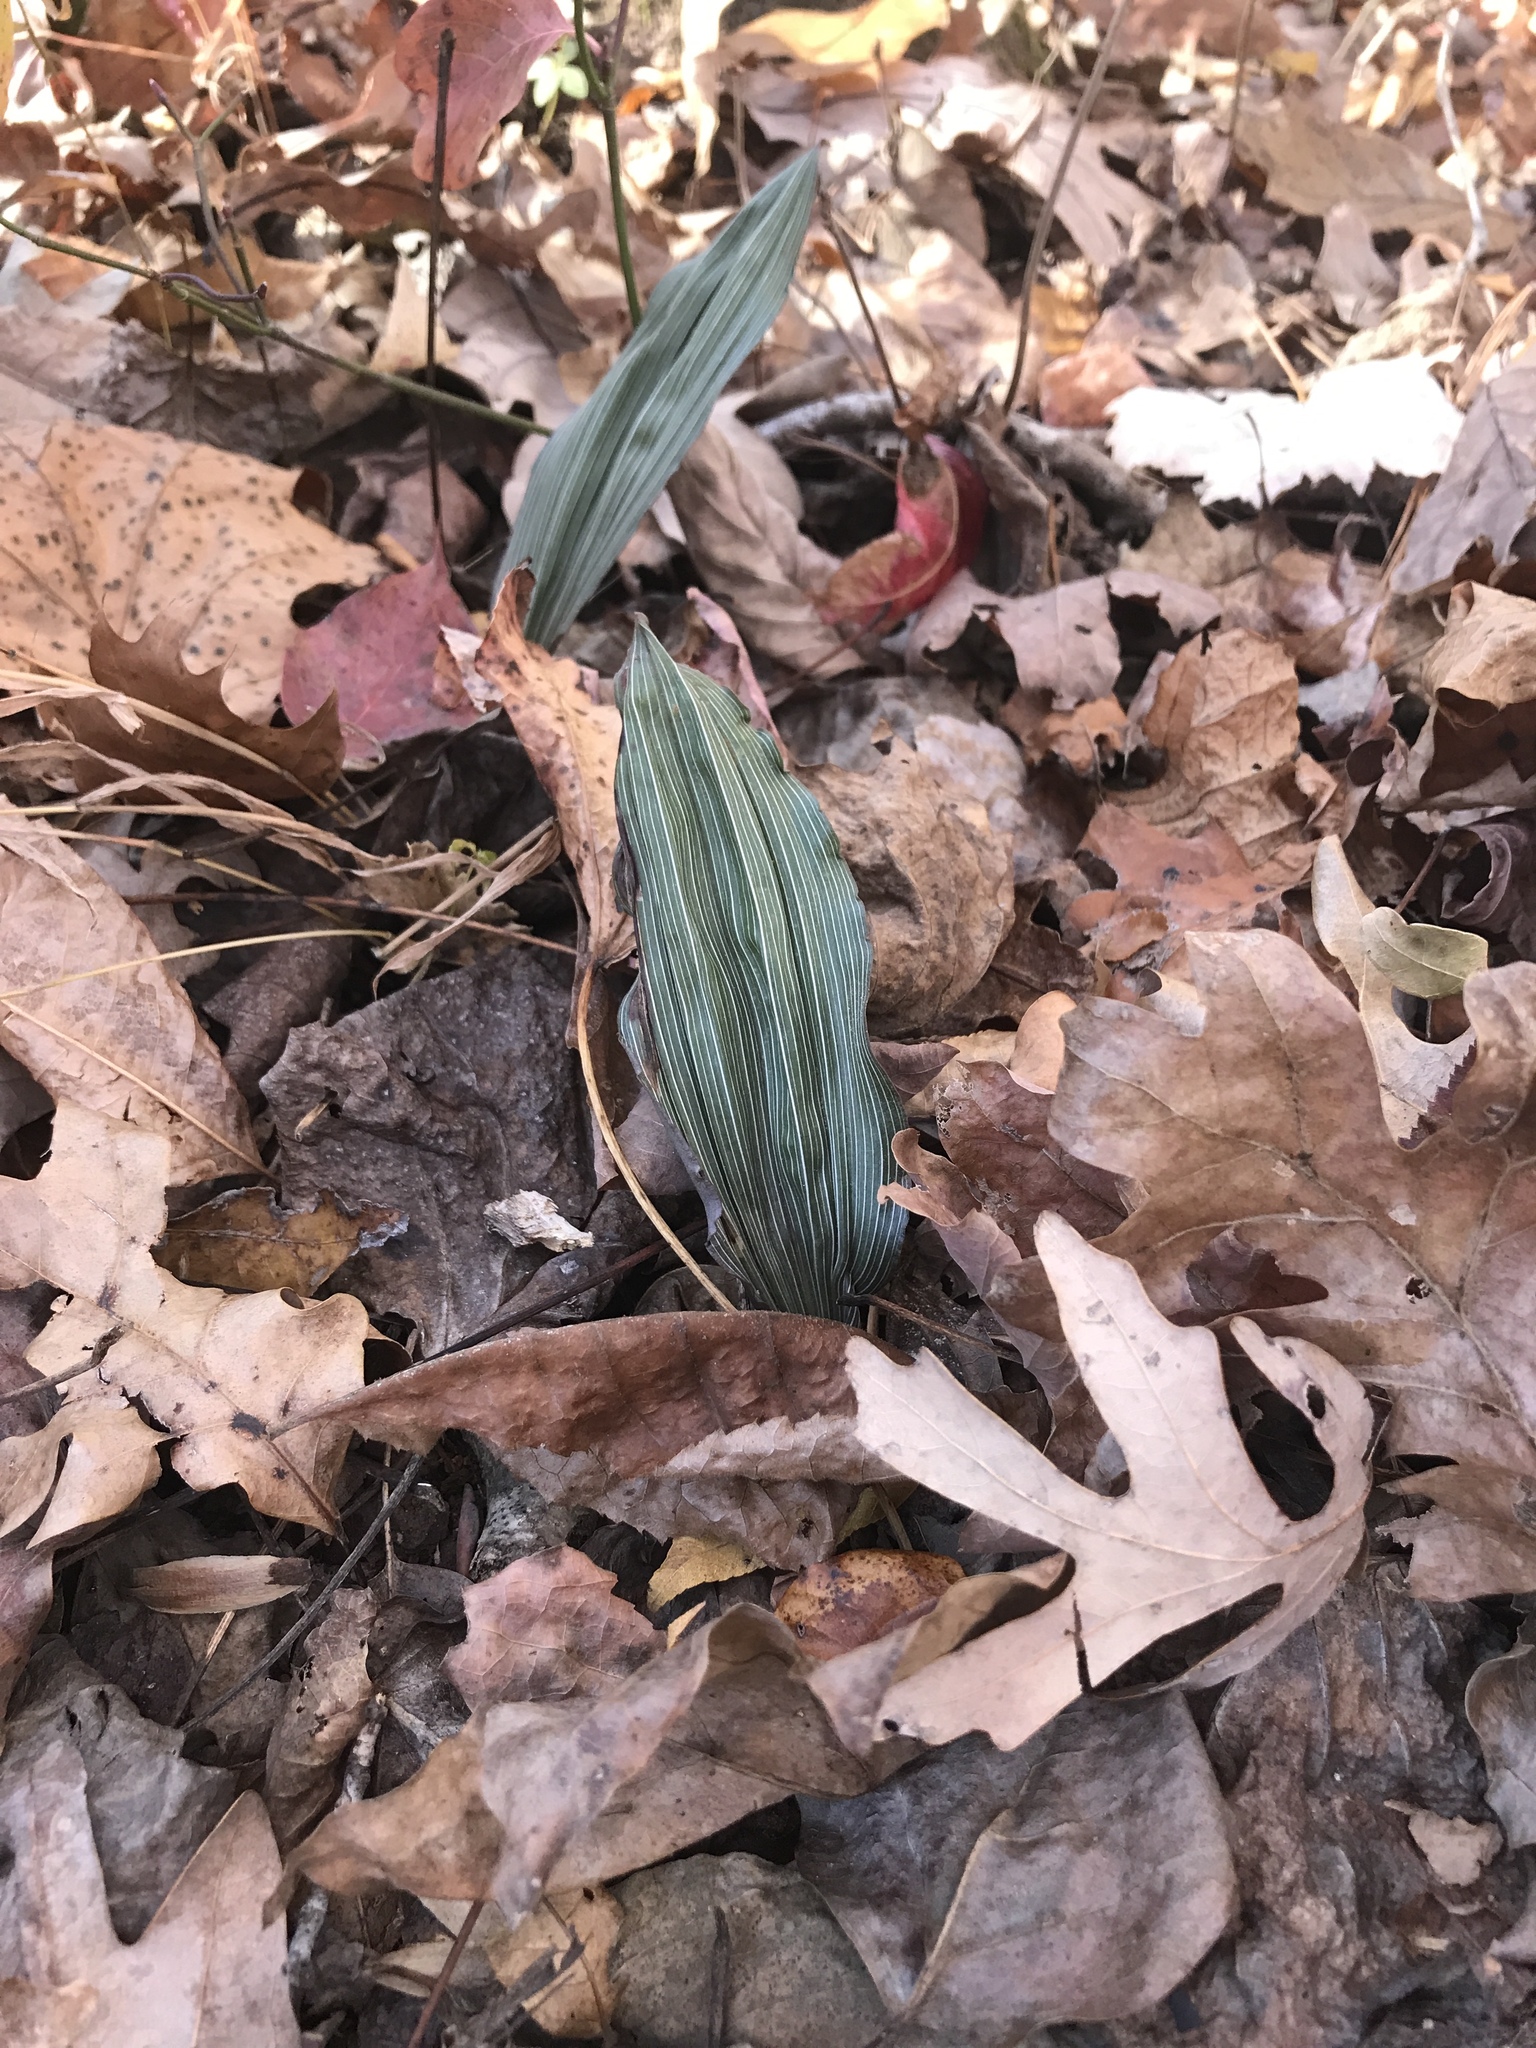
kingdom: Plantae
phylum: Tracheophyta
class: Liliopsida
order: Asparagales
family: Orchidaceae
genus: Aplectrum
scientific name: Aplectrum hyemale
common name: Adam-and-eve
